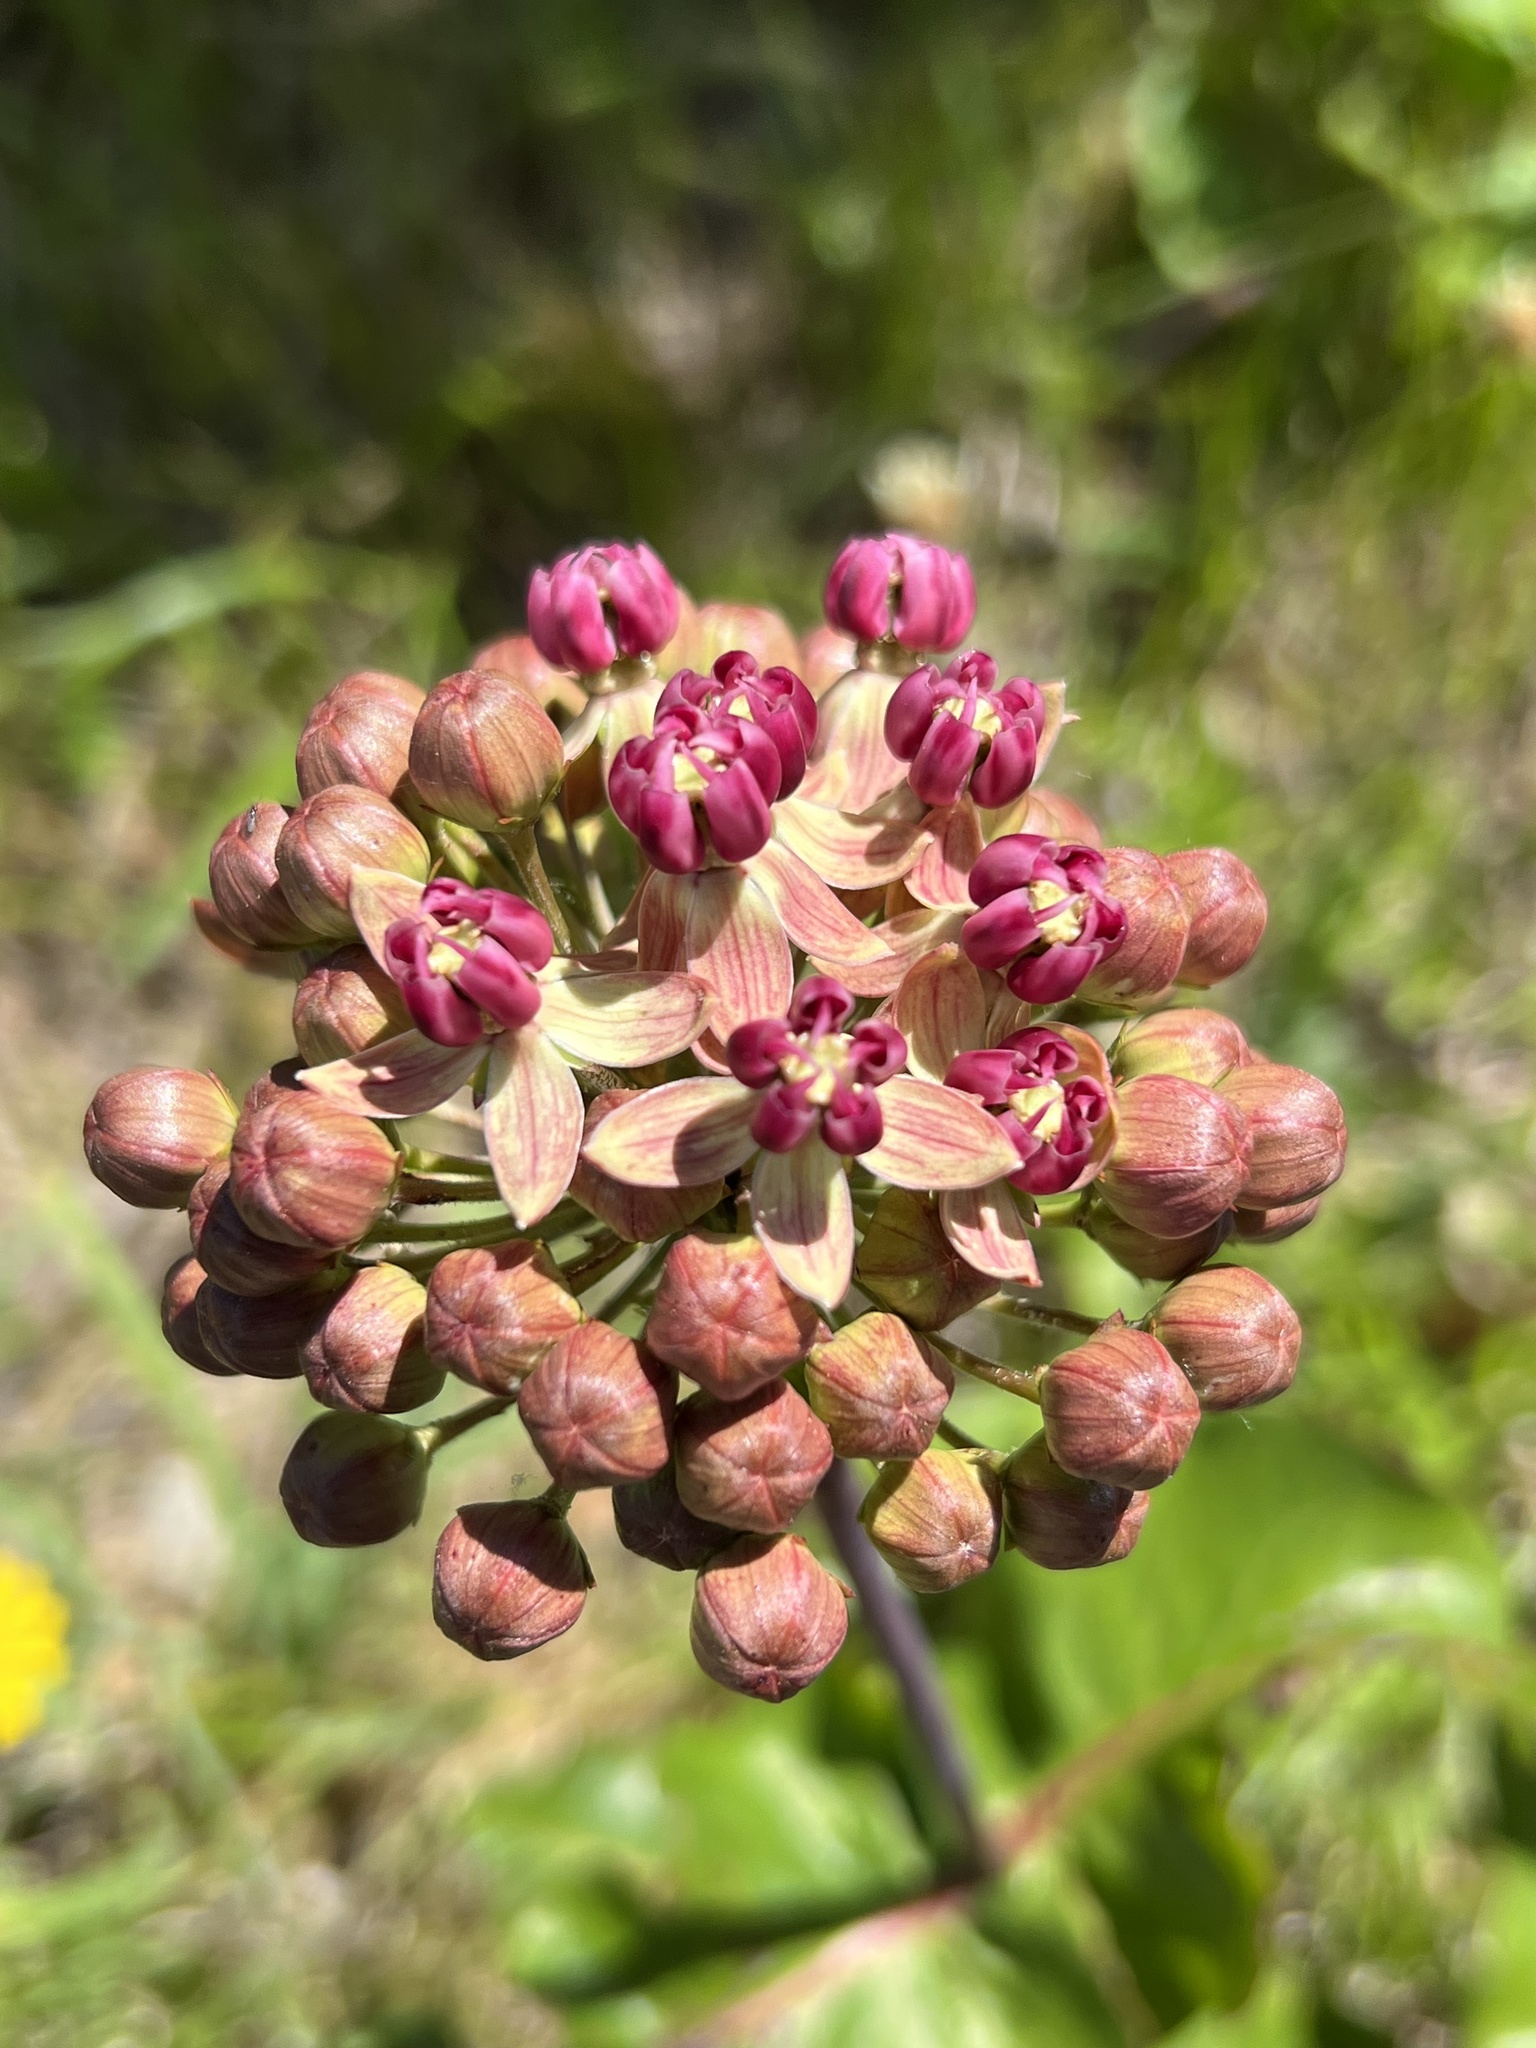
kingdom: Plantae
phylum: Tracheophyta
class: Magnoliopsida
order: Gentianales
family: Apocynaceae
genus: Asclepias
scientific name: Asclepias amplexicaulis
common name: Blunt-leaf milkweed
